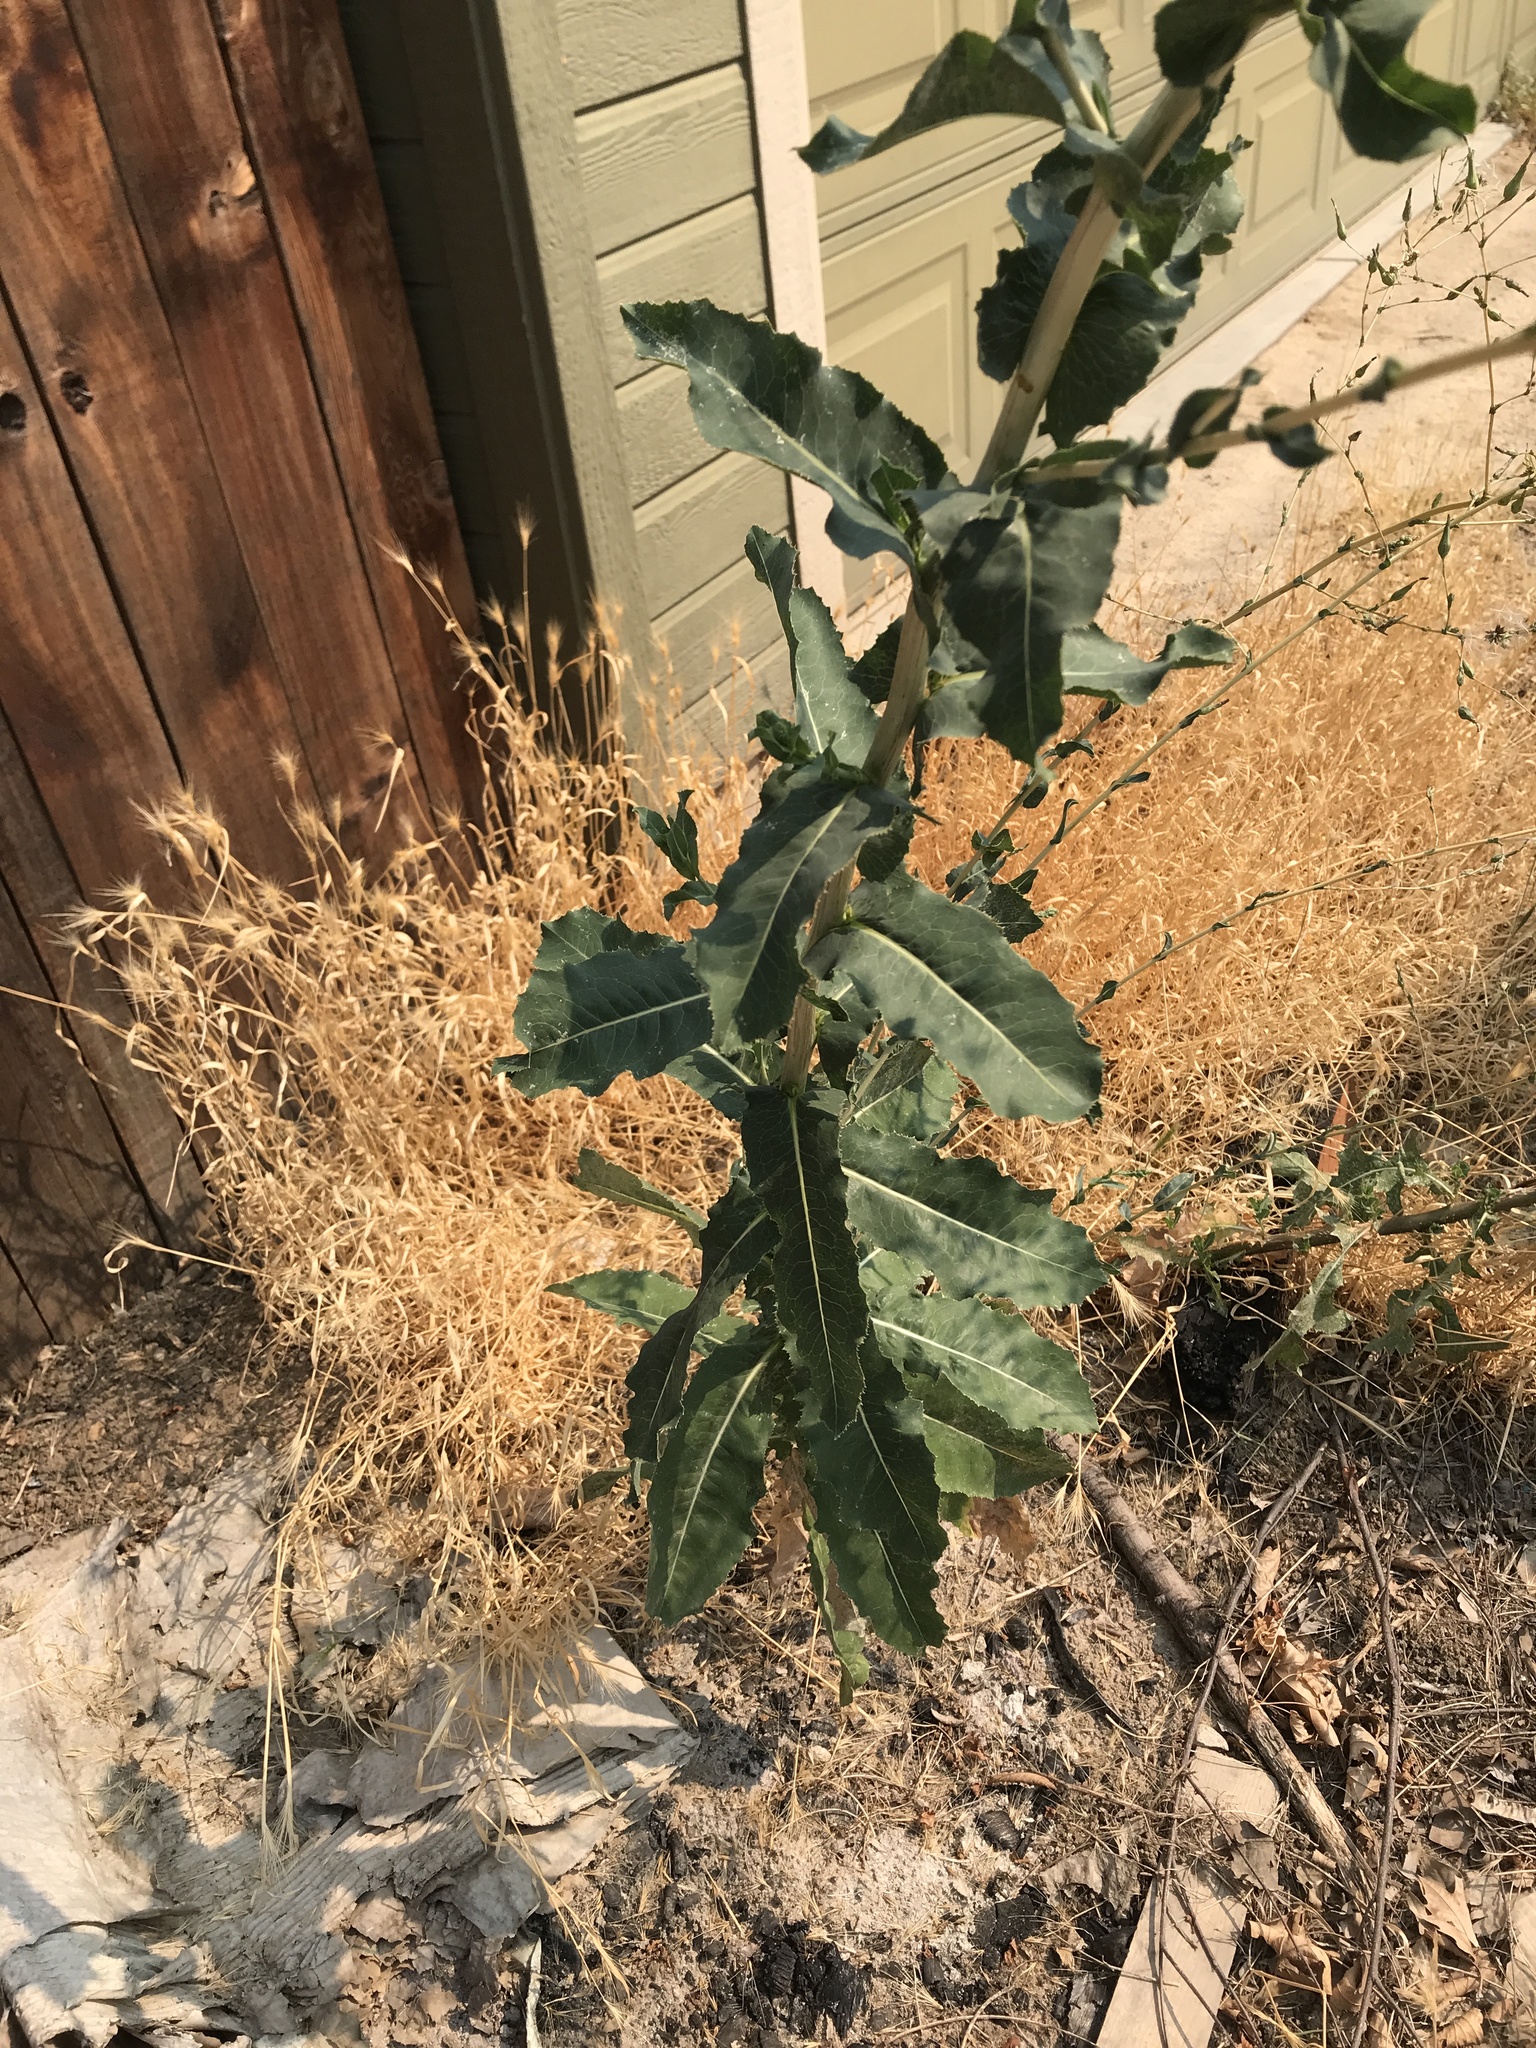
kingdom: Plantae
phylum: Tracheophyta
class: Magnoliopsida
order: Asterales
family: Asteraceae
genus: Lactuca
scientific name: Lactuca serriola
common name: Prickly lettuce
